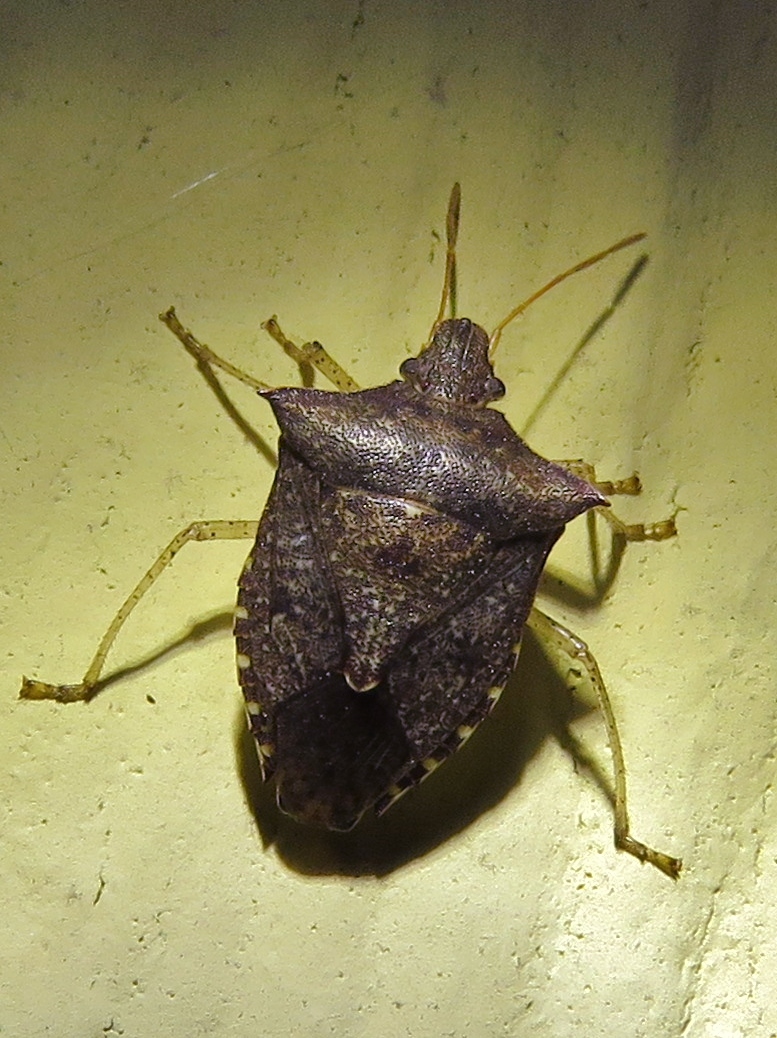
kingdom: Animalia
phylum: Arthropoda
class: Insecta
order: Hemiptera
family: Pentatomidae
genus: Euschistus
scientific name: Euschistus tristigmus
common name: Dusky stink bug
